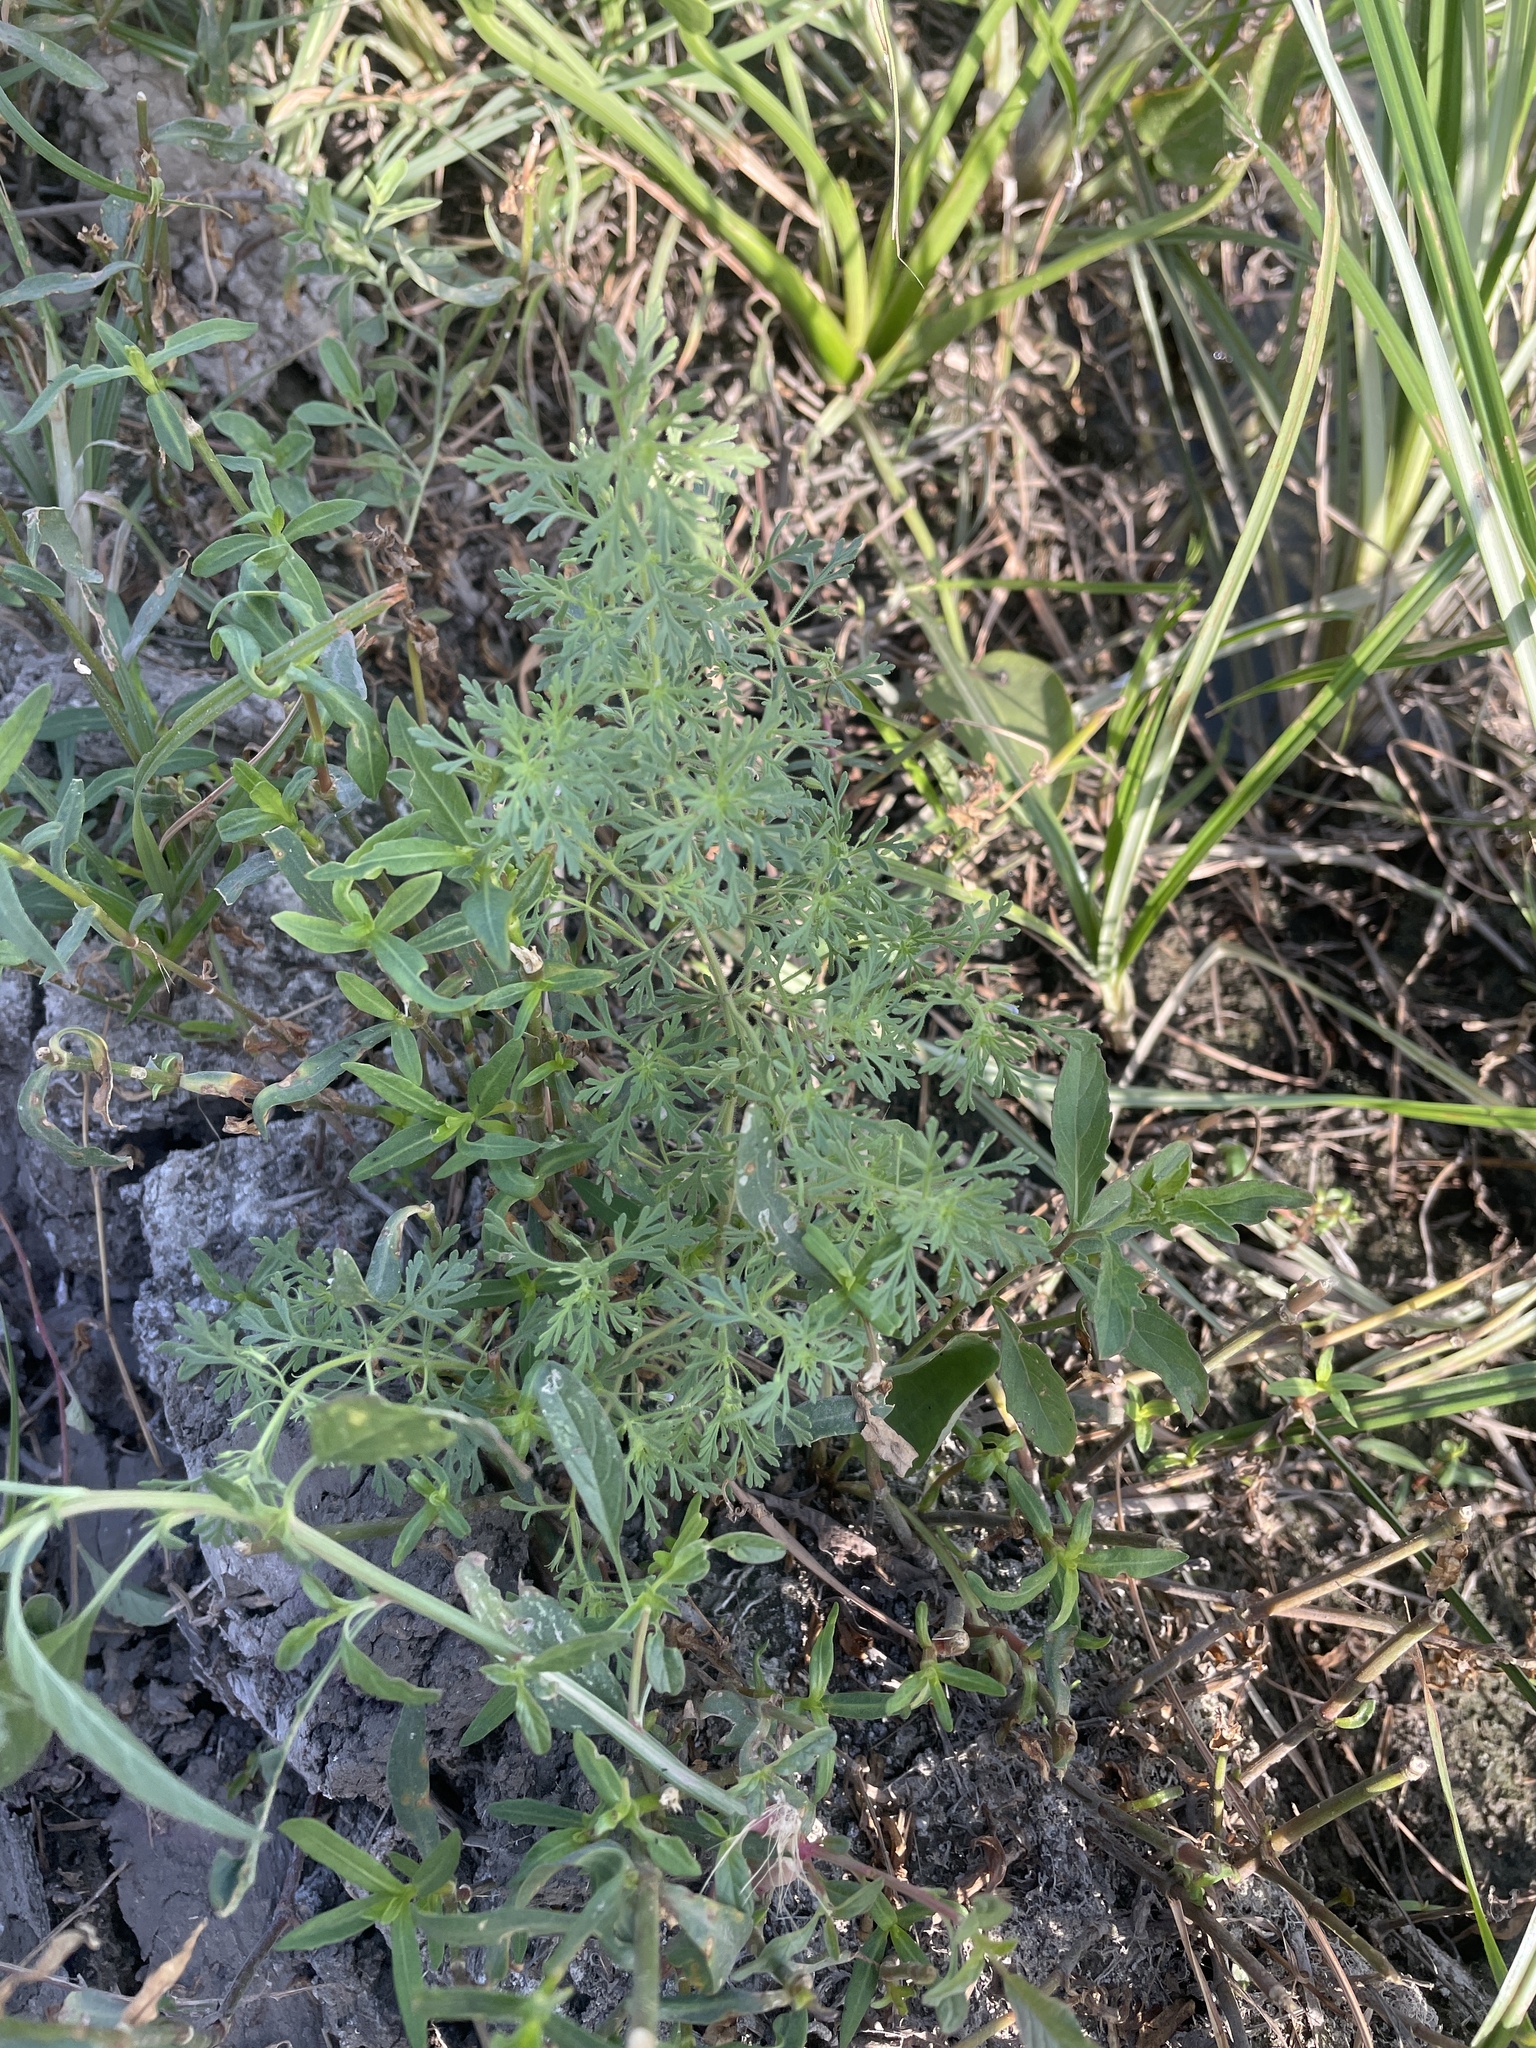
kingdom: Plantae
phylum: Tracheophyta
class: Magnoliopsida
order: Lamiales
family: Plantaginaceae
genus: Leucospora
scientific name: Leucospora multifida
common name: Narrow-leaf paleseed
